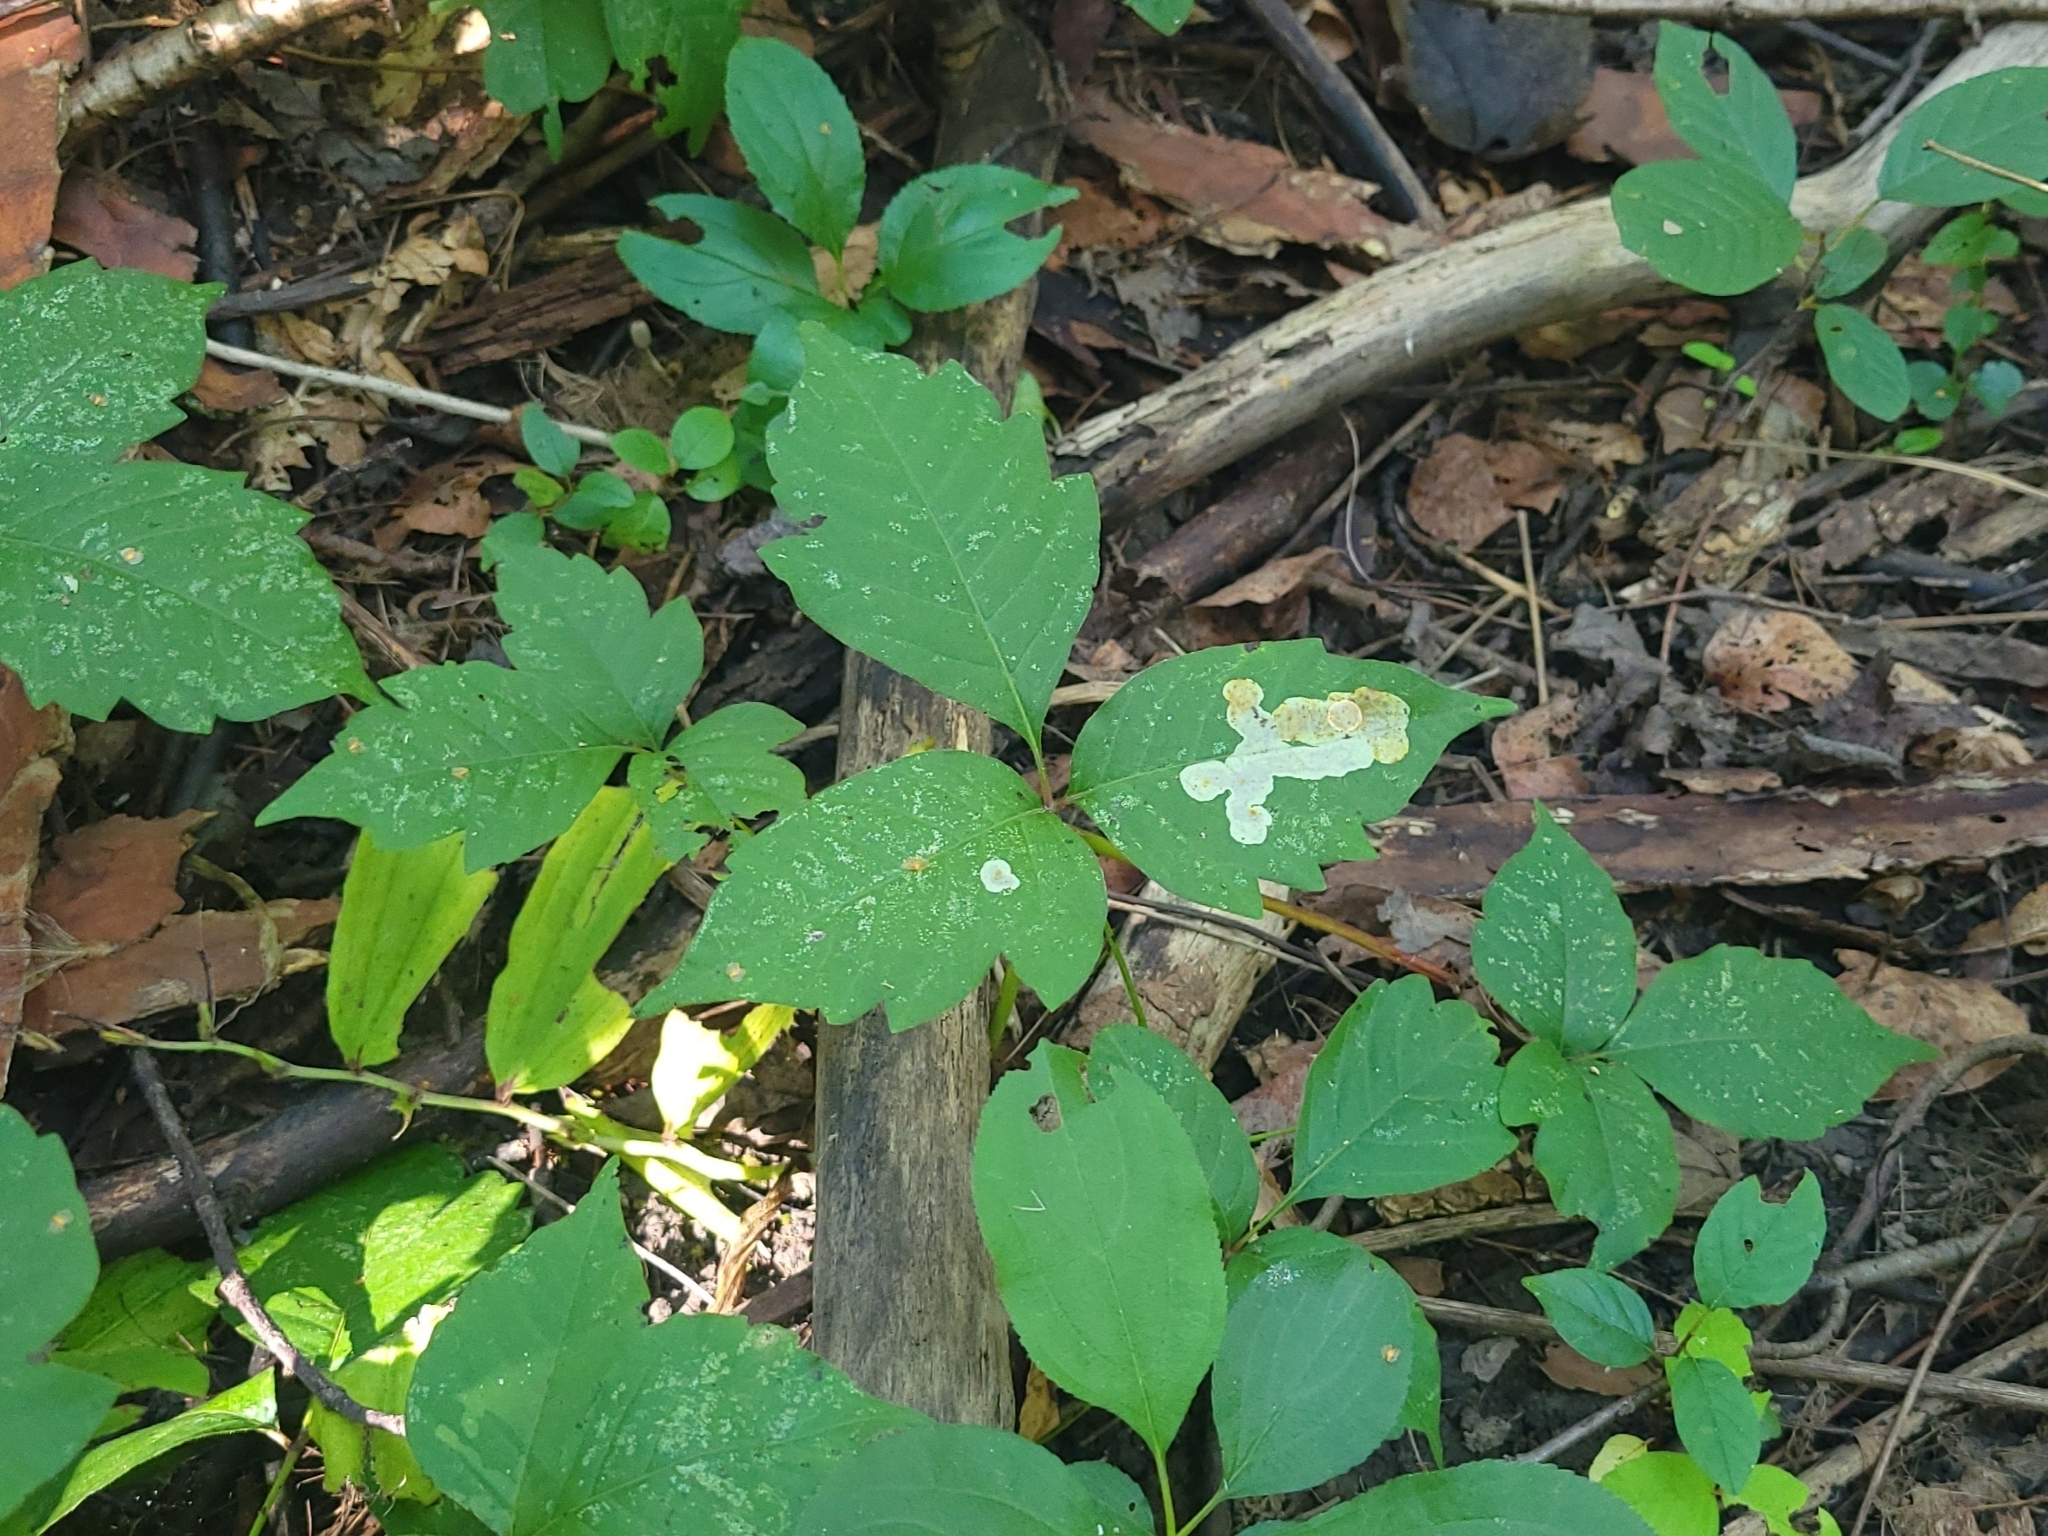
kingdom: Plantae
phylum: Tracheophyta
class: Magnoliopsida
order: Sapindales
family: Anacardiaceae
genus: Toxicodendron
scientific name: Toxicodendron radicans
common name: Poison ivy
